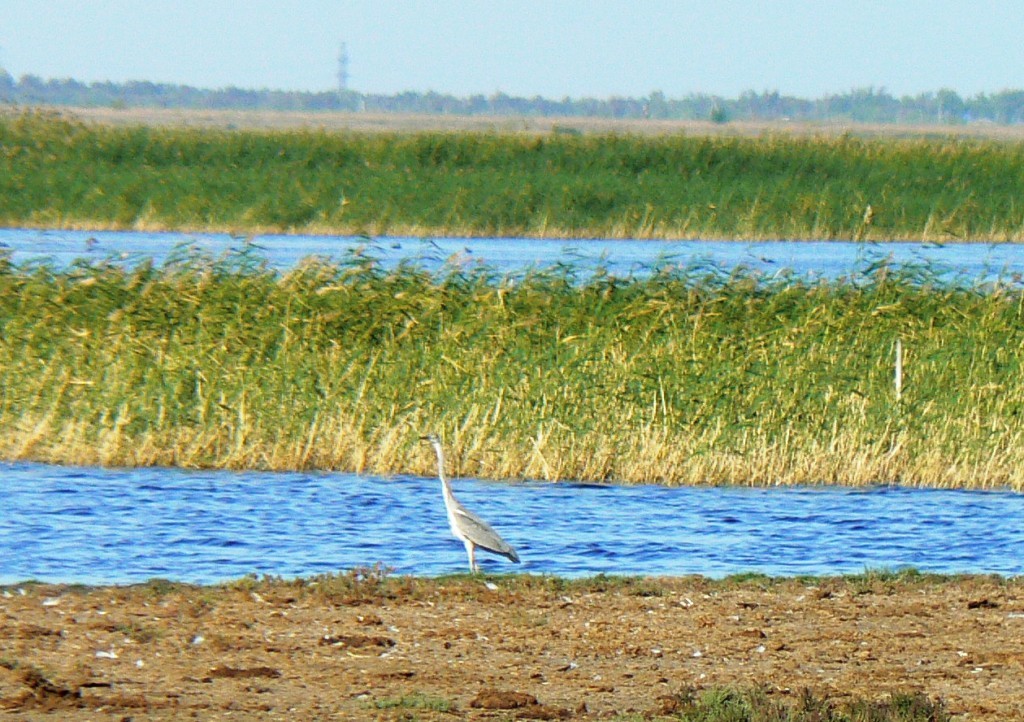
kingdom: Animalia
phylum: Chordata
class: Aves
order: Pelecaniformes
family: Ardeidae
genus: Ardea
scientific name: Ardea cinerea
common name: Grey heron
